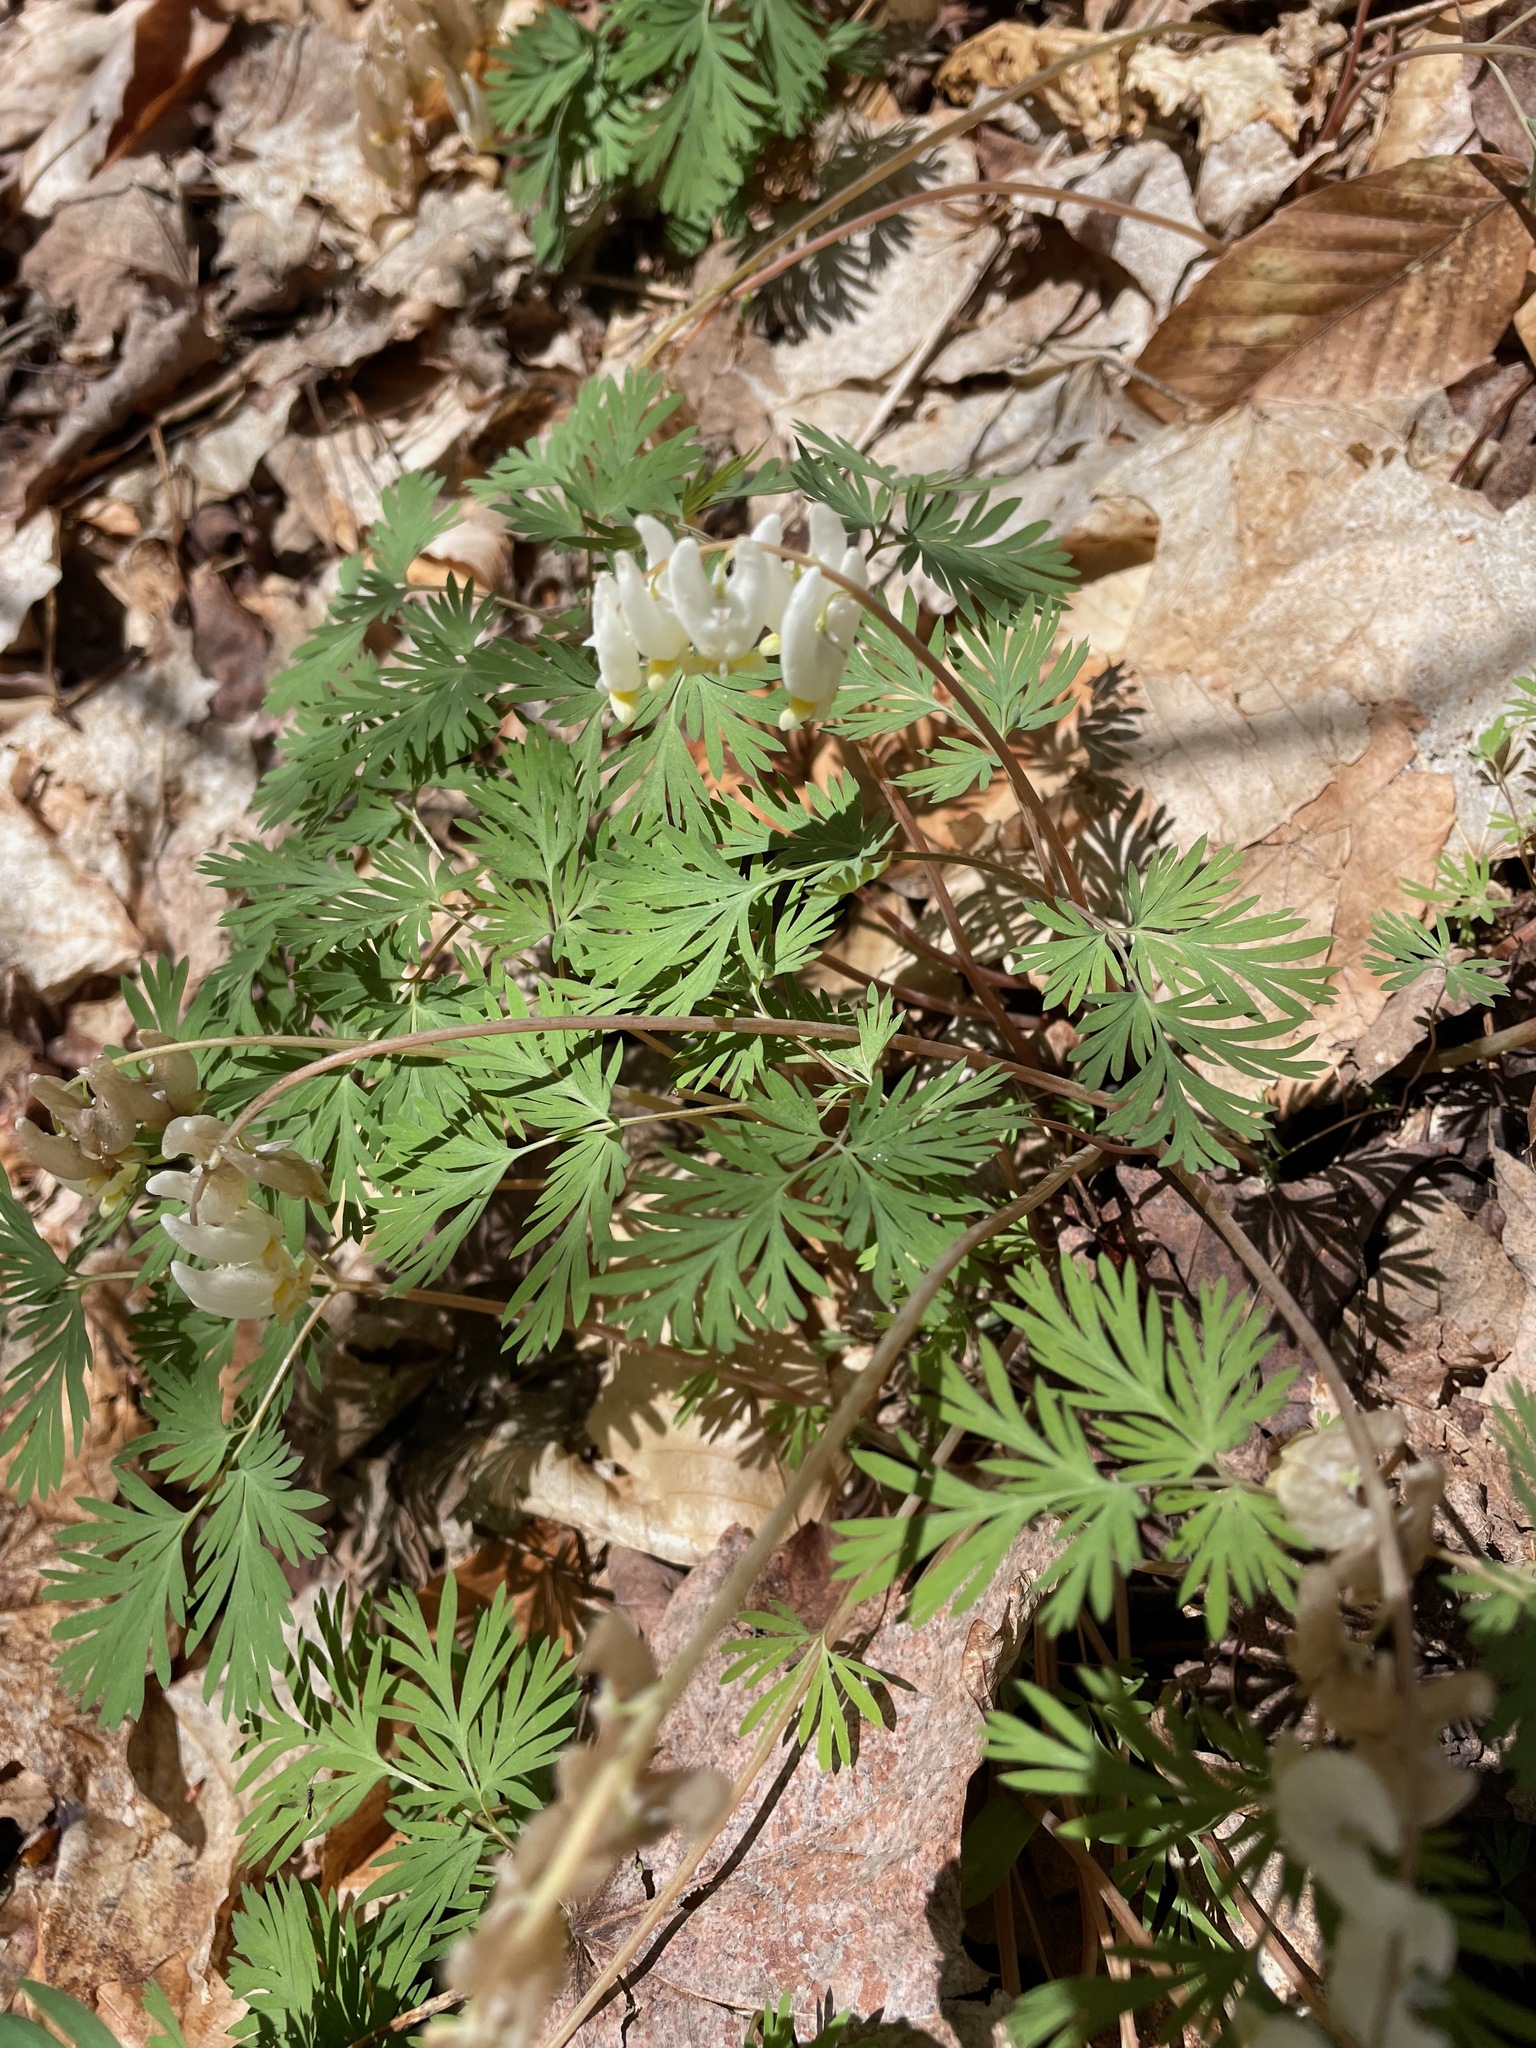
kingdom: Plantae
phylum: Tracheophyta
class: Magnoliopsida
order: Ranunculales
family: Papaveraceae
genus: Dicentra
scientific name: Dicentra cucullaria
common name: Dutchman's breeches
